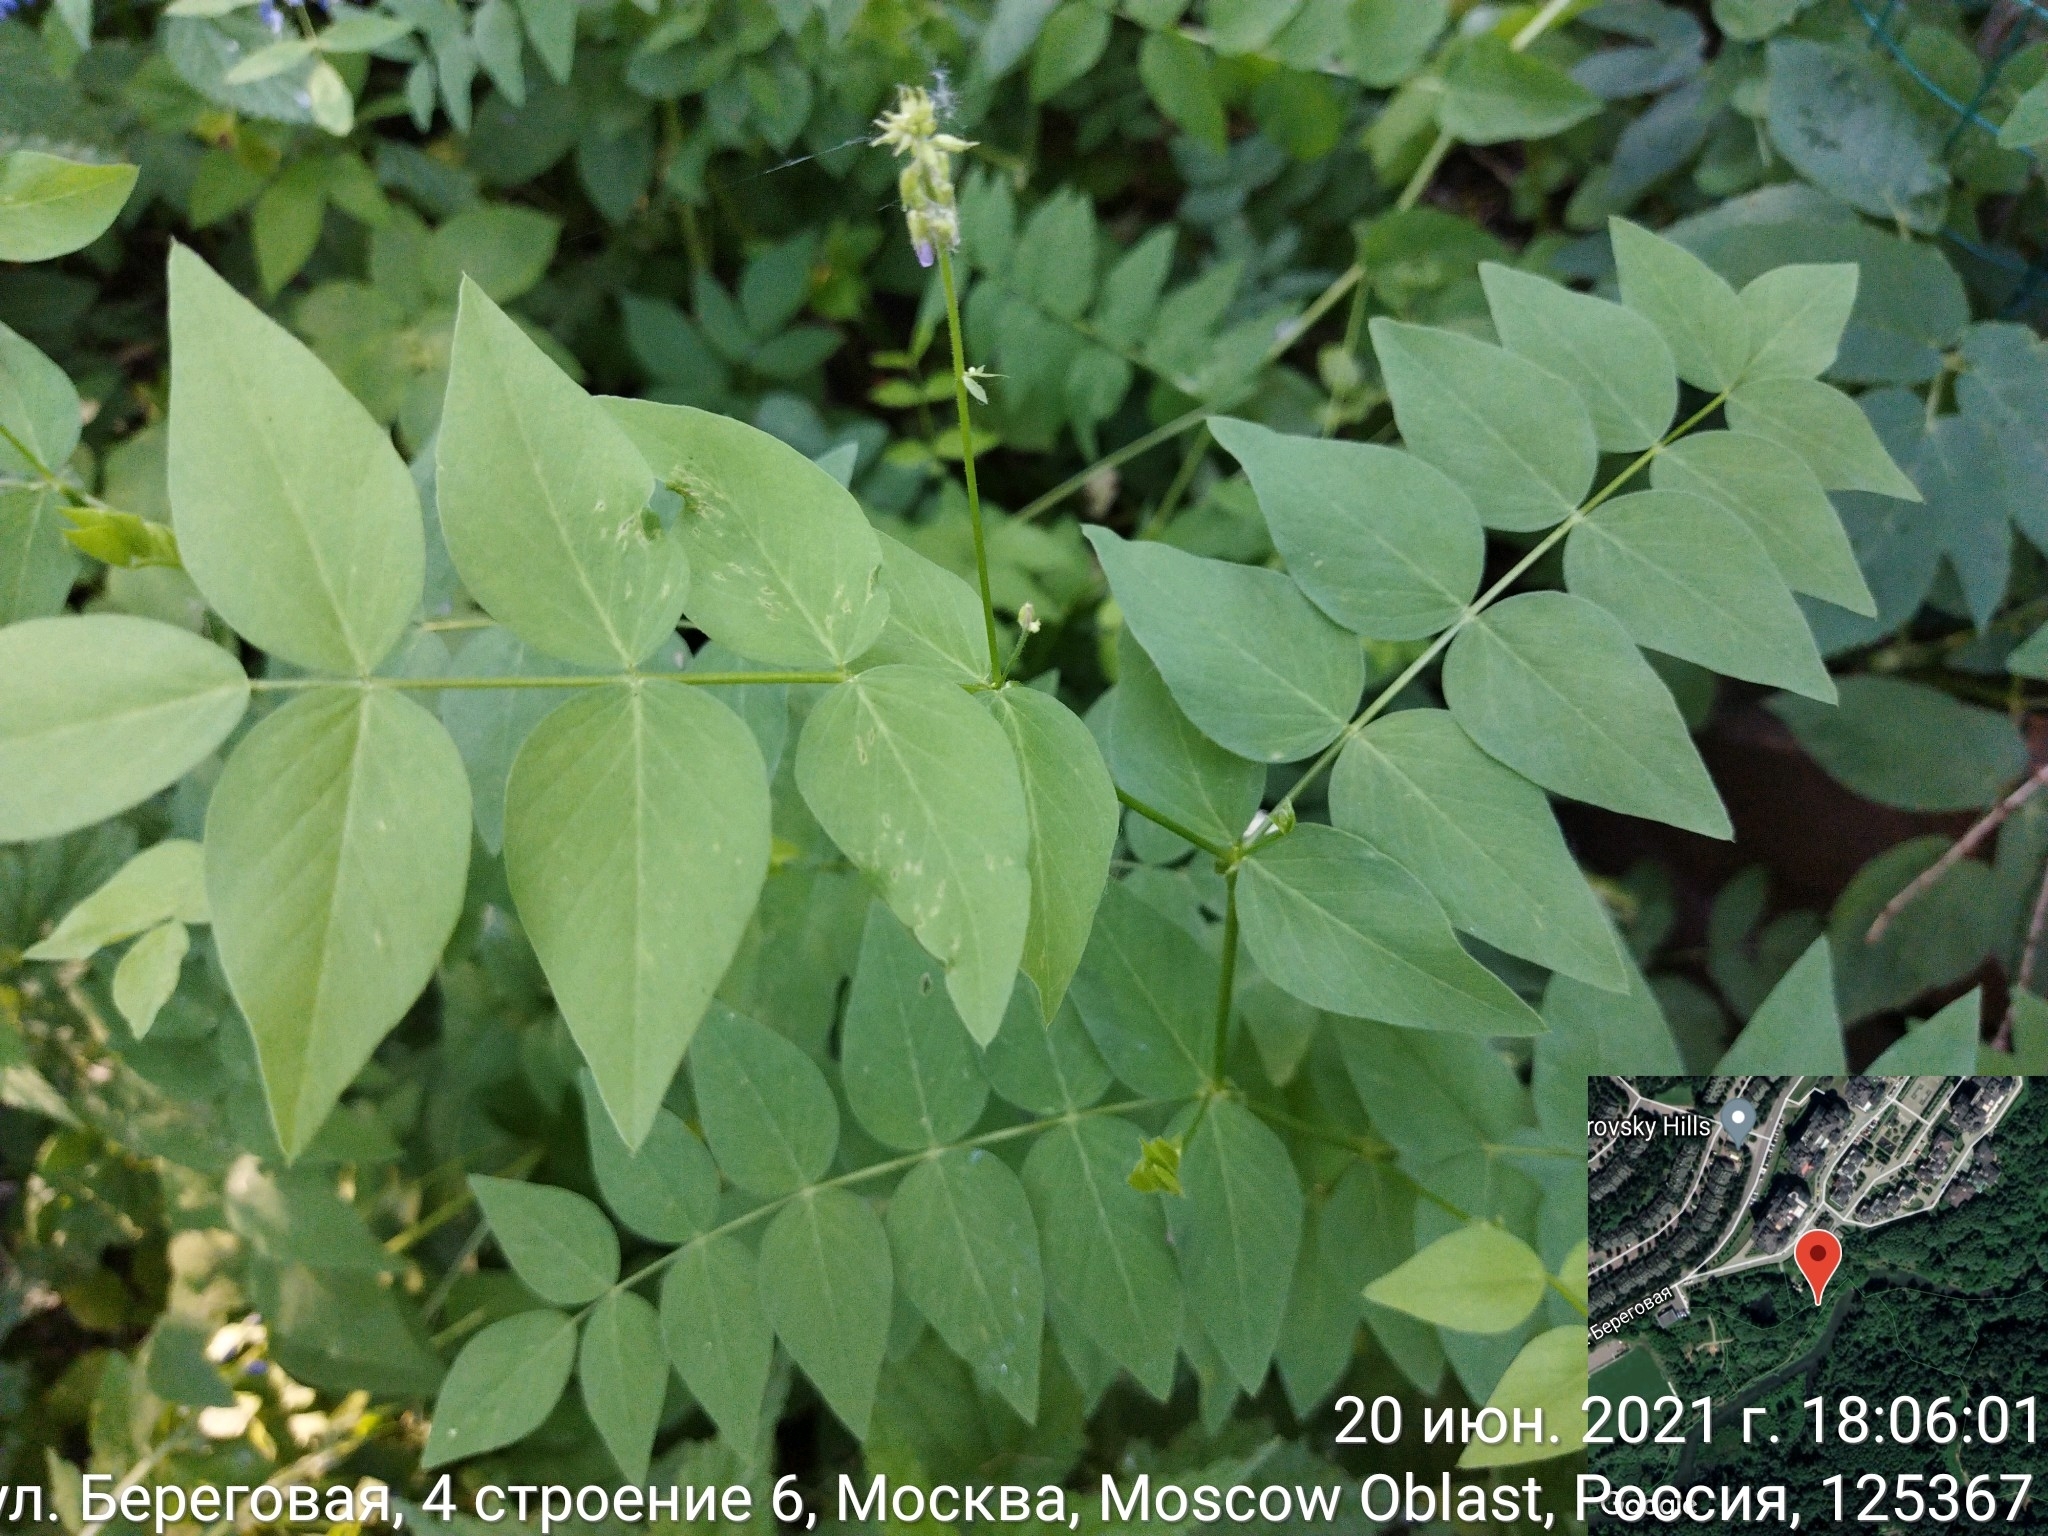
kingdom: Plantae
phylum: Tracheophyta
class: Magnoliopsida
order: Fabales
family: Fabaceae
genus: Galega
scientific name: Galega orientalis
